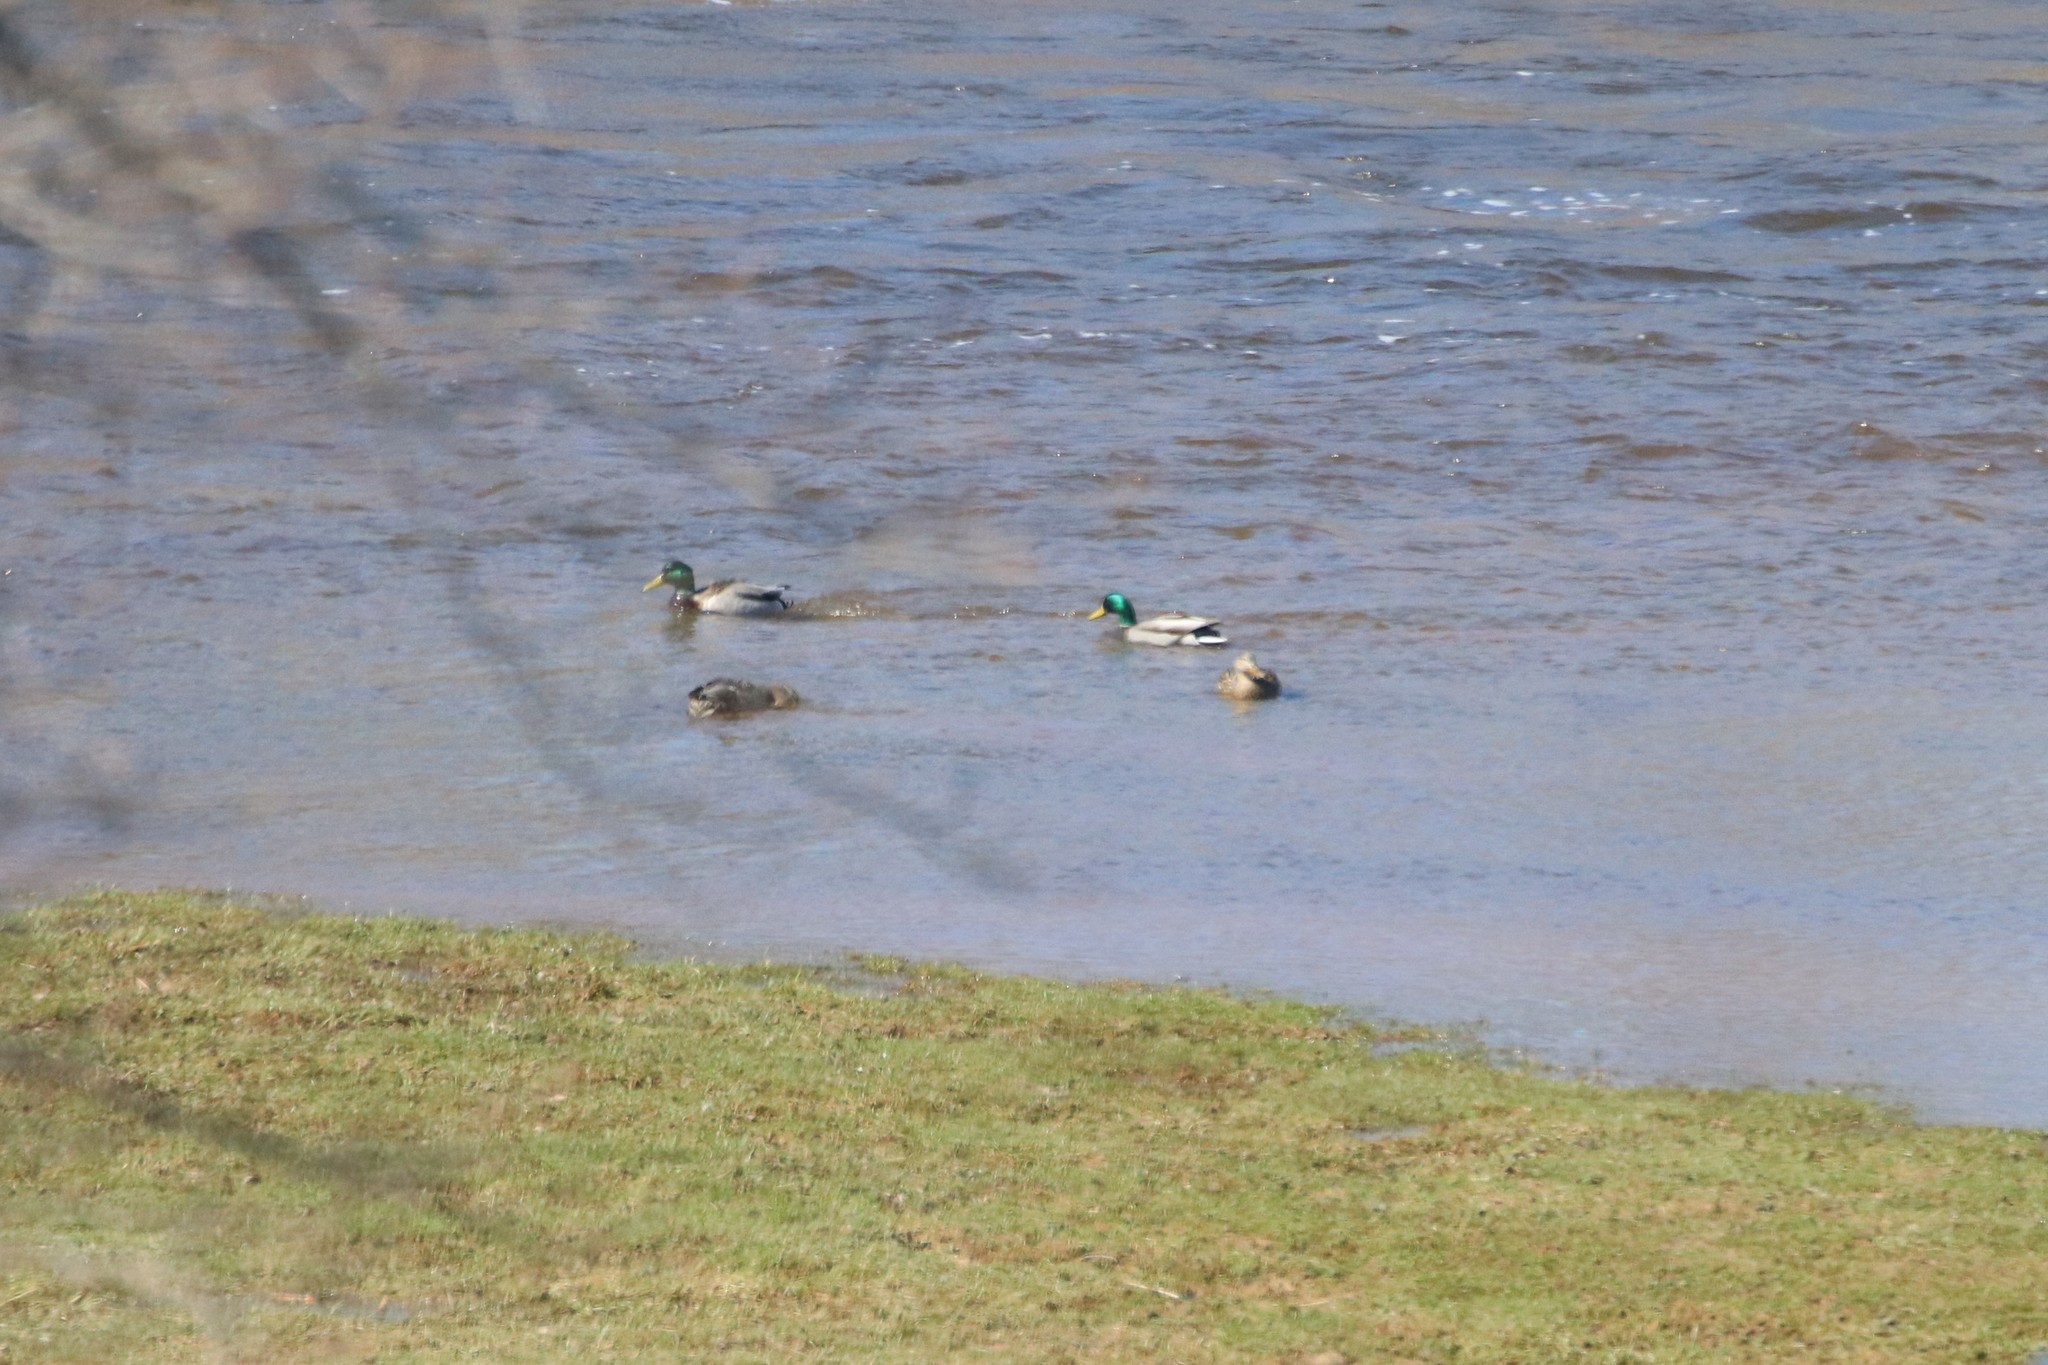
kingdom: Animalia
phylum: Chordata
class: Aves
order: Anseriformes
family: Anatidae
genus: Anas
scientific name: Anas platyrhynchos
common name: Mallard
